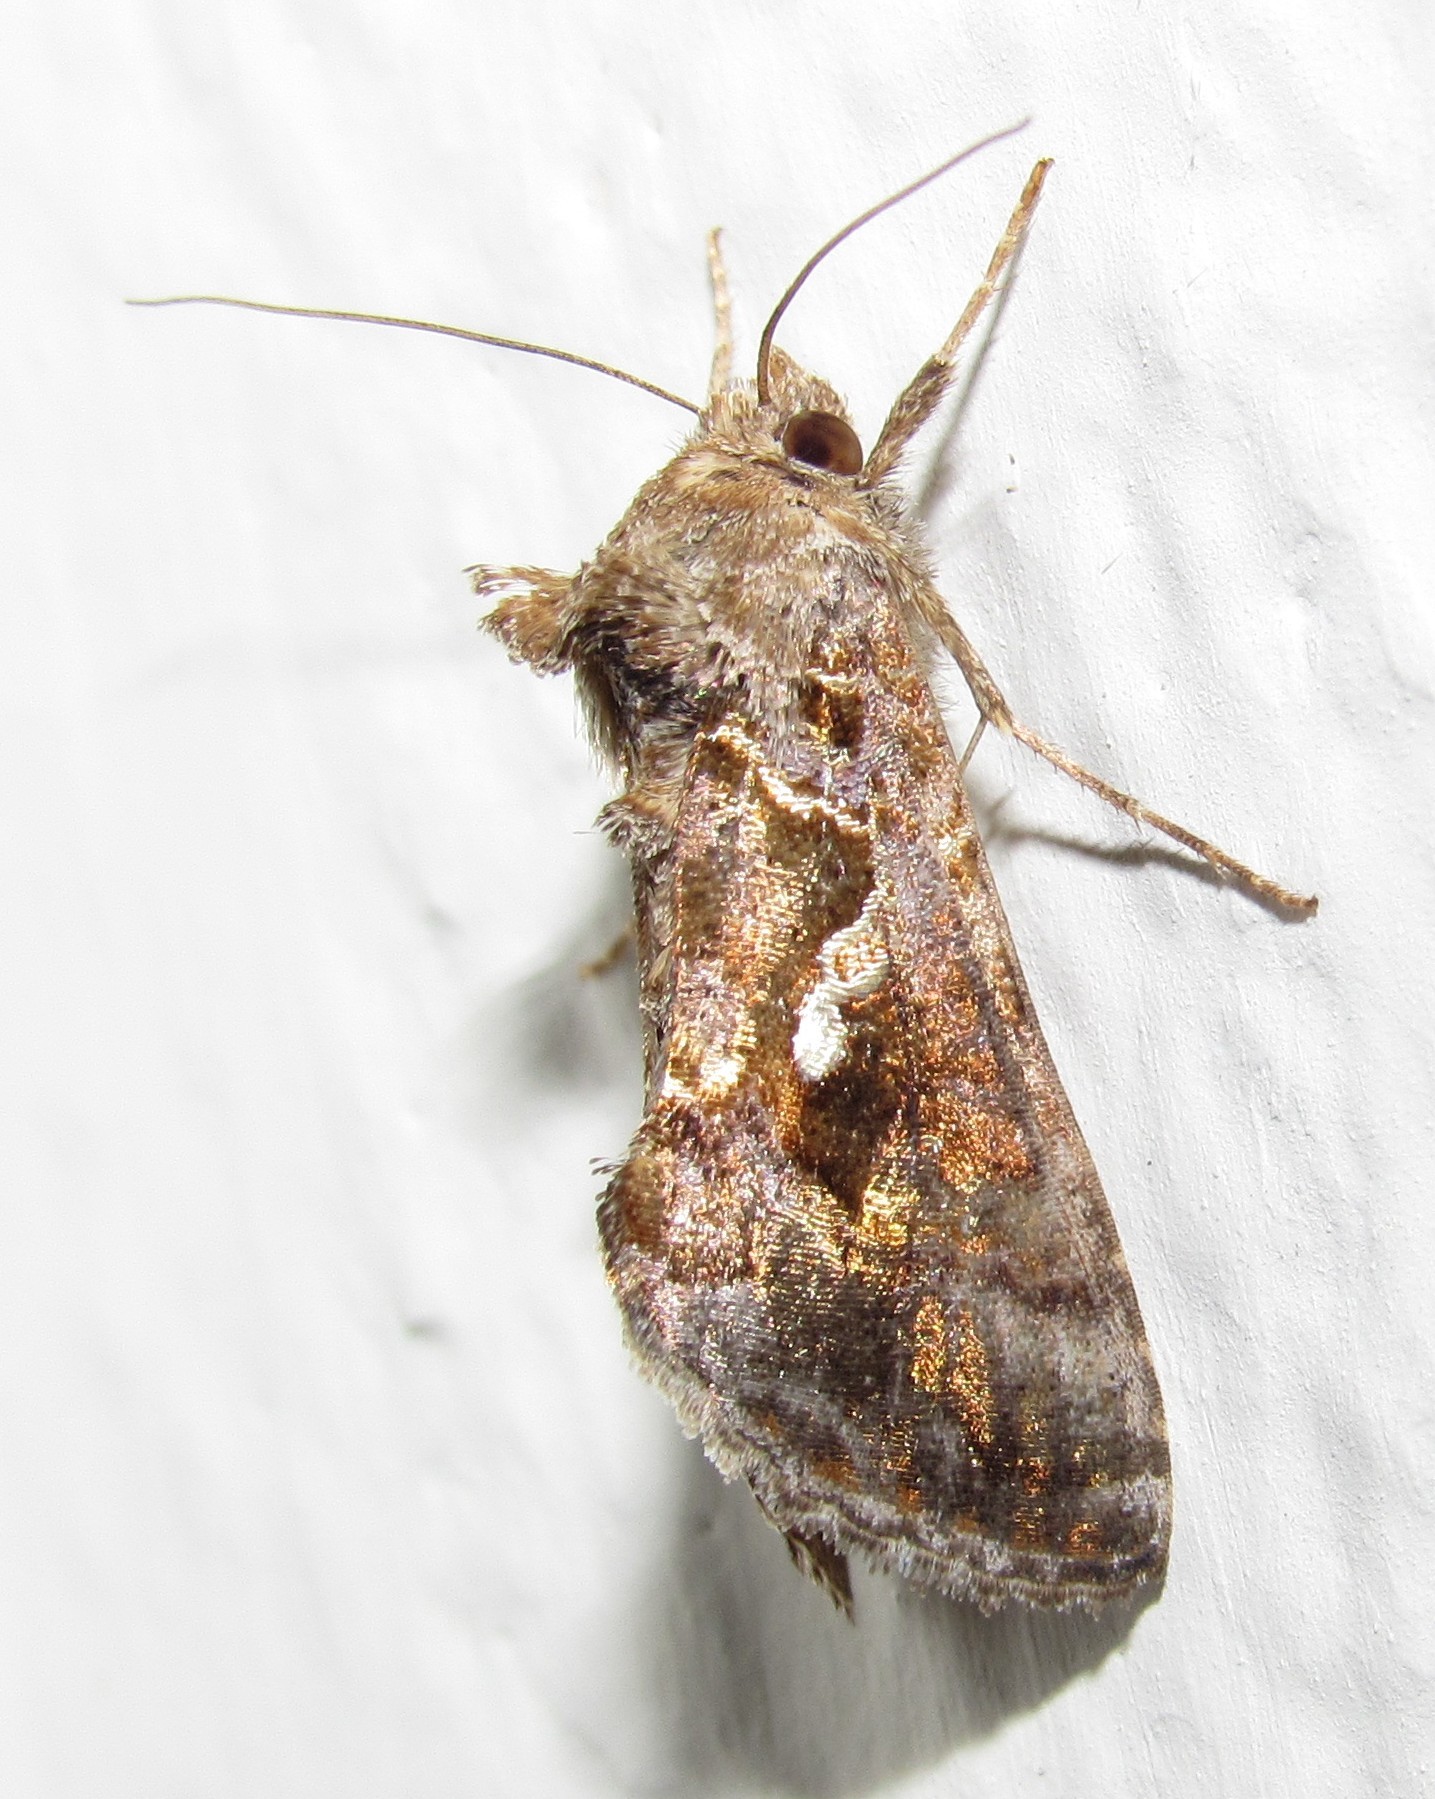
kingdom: Animalia
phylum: Arthropoda
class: Insecta
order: Lepidoptera
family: Noctuidae
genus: Chrysodeixis
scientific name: Chrysodeixis includens
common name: Cutworm moth
